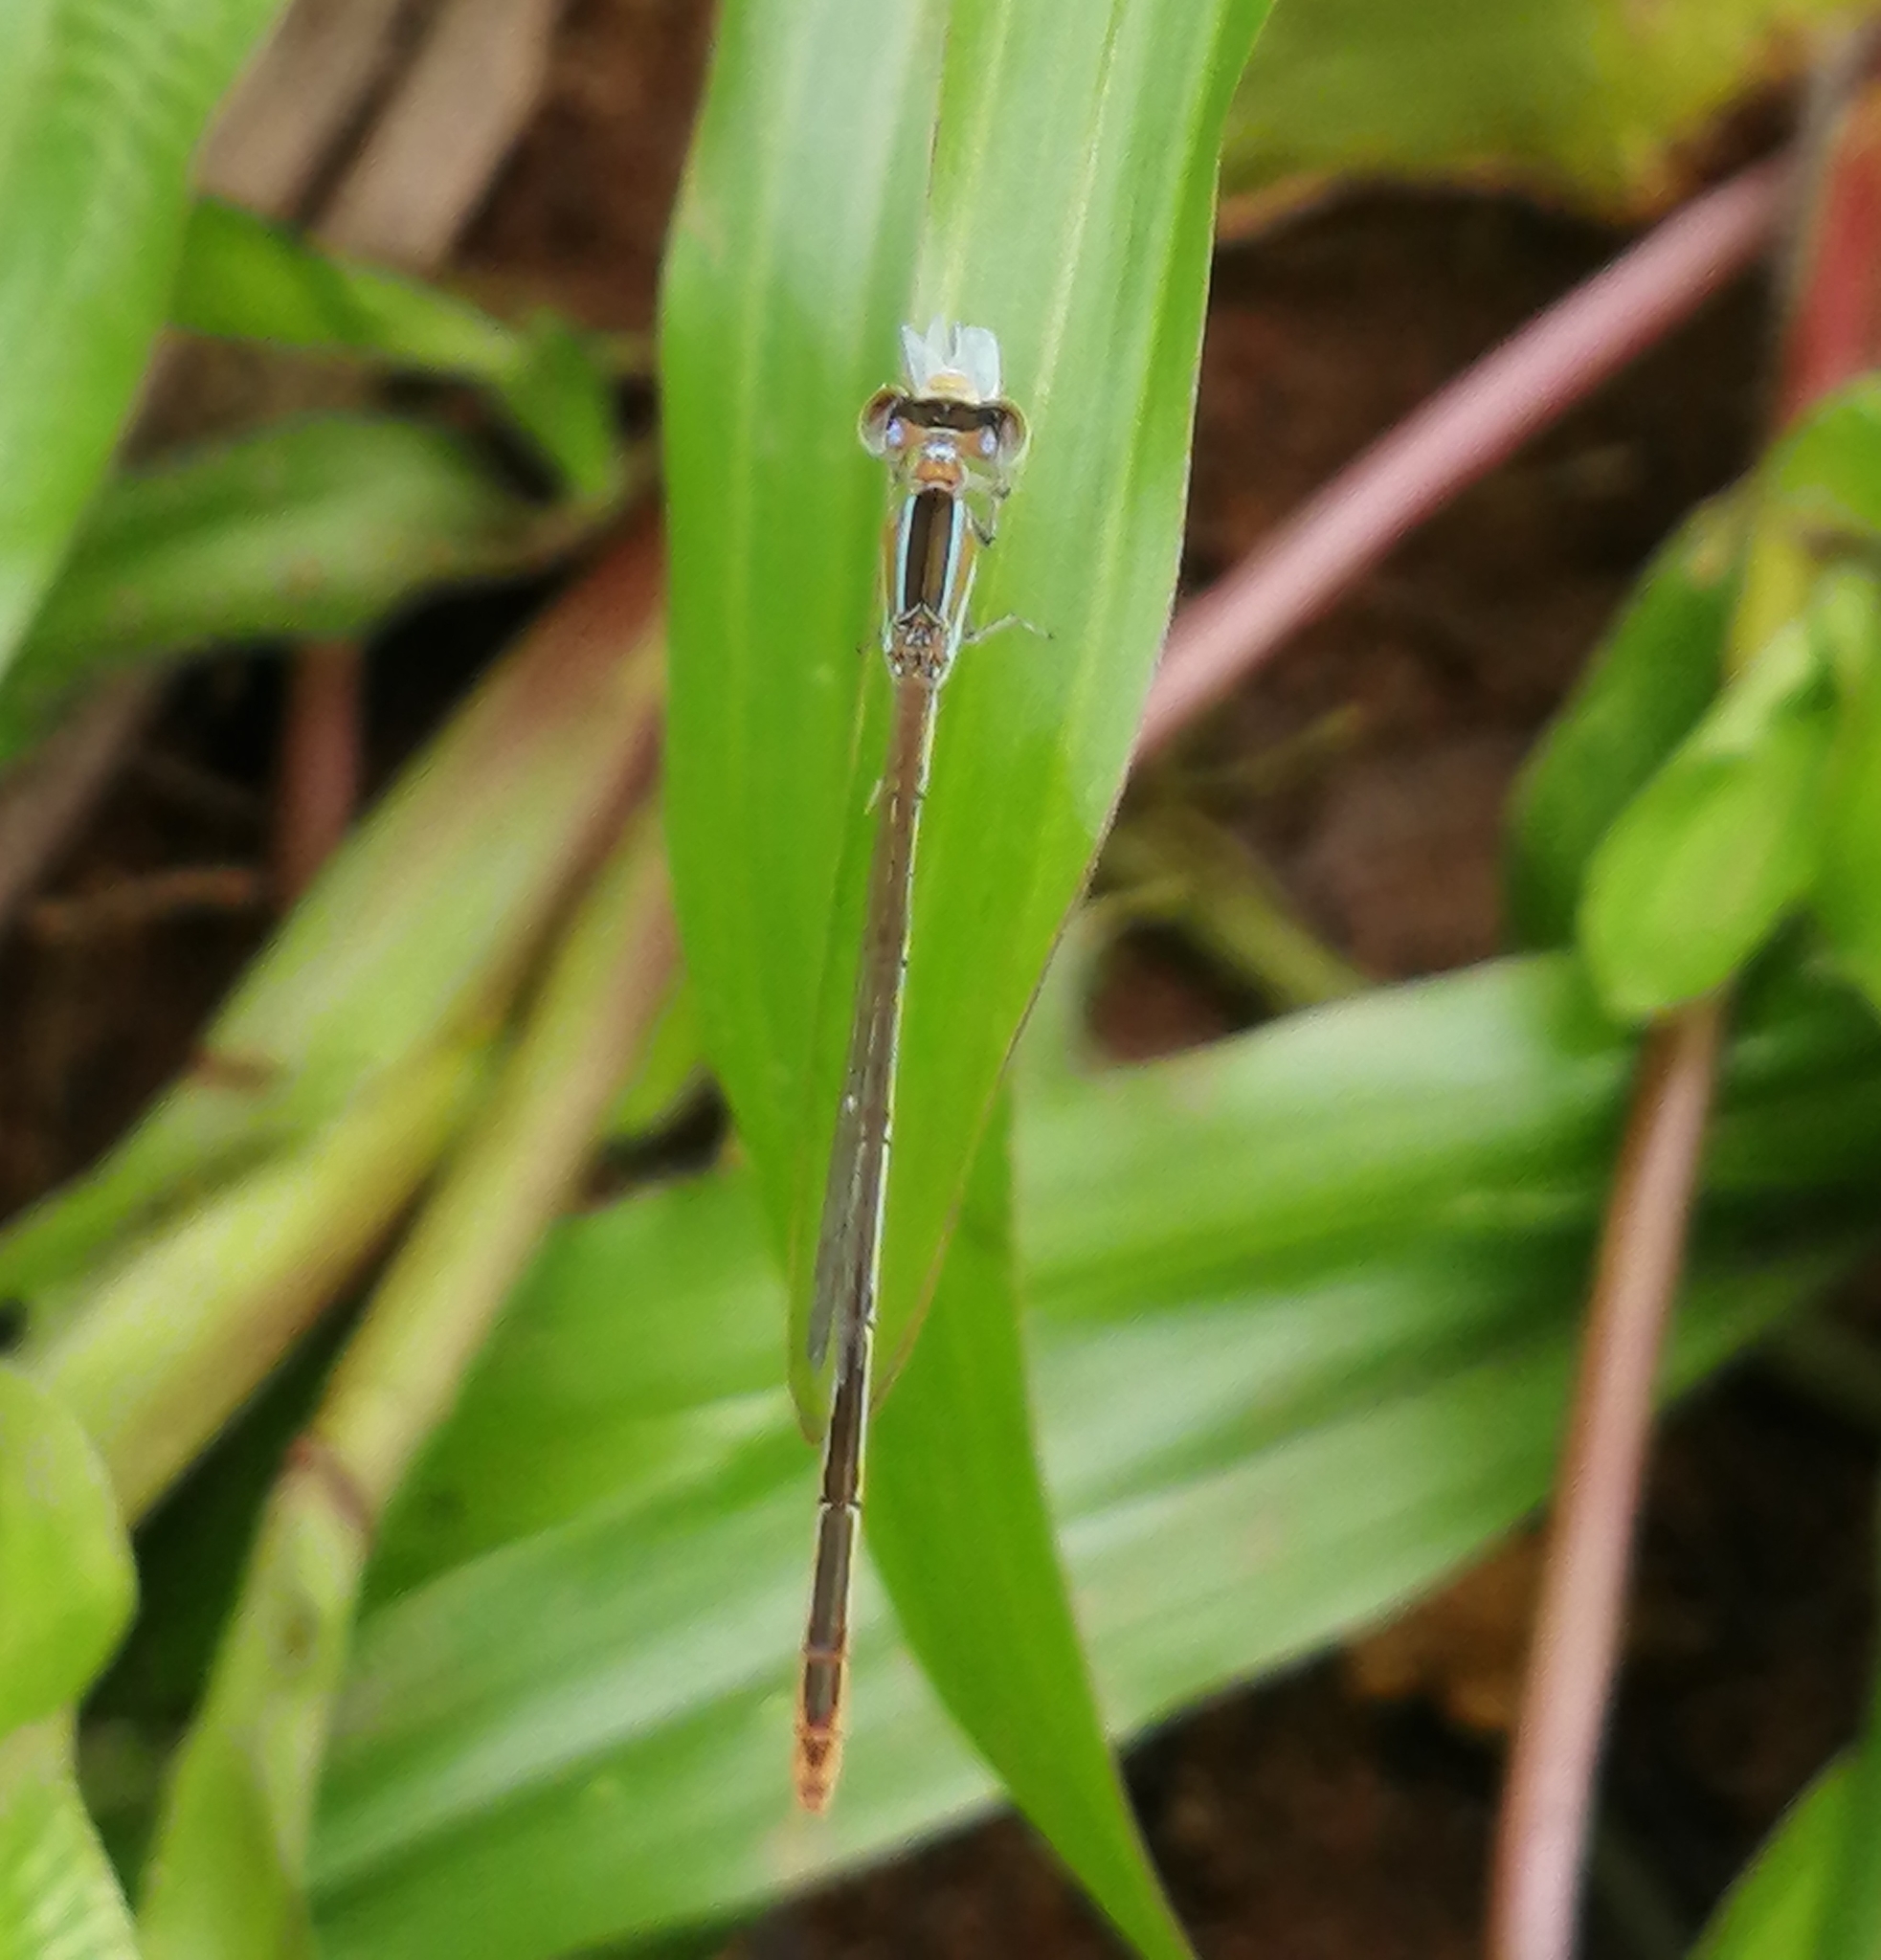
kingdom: Animalia
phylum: Arthropoda
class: Insecta
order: Odonata
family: Coenagrionidae
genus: Agriocnemis
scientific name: Agriocnemis pygmaea
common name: Pygmy wisp
